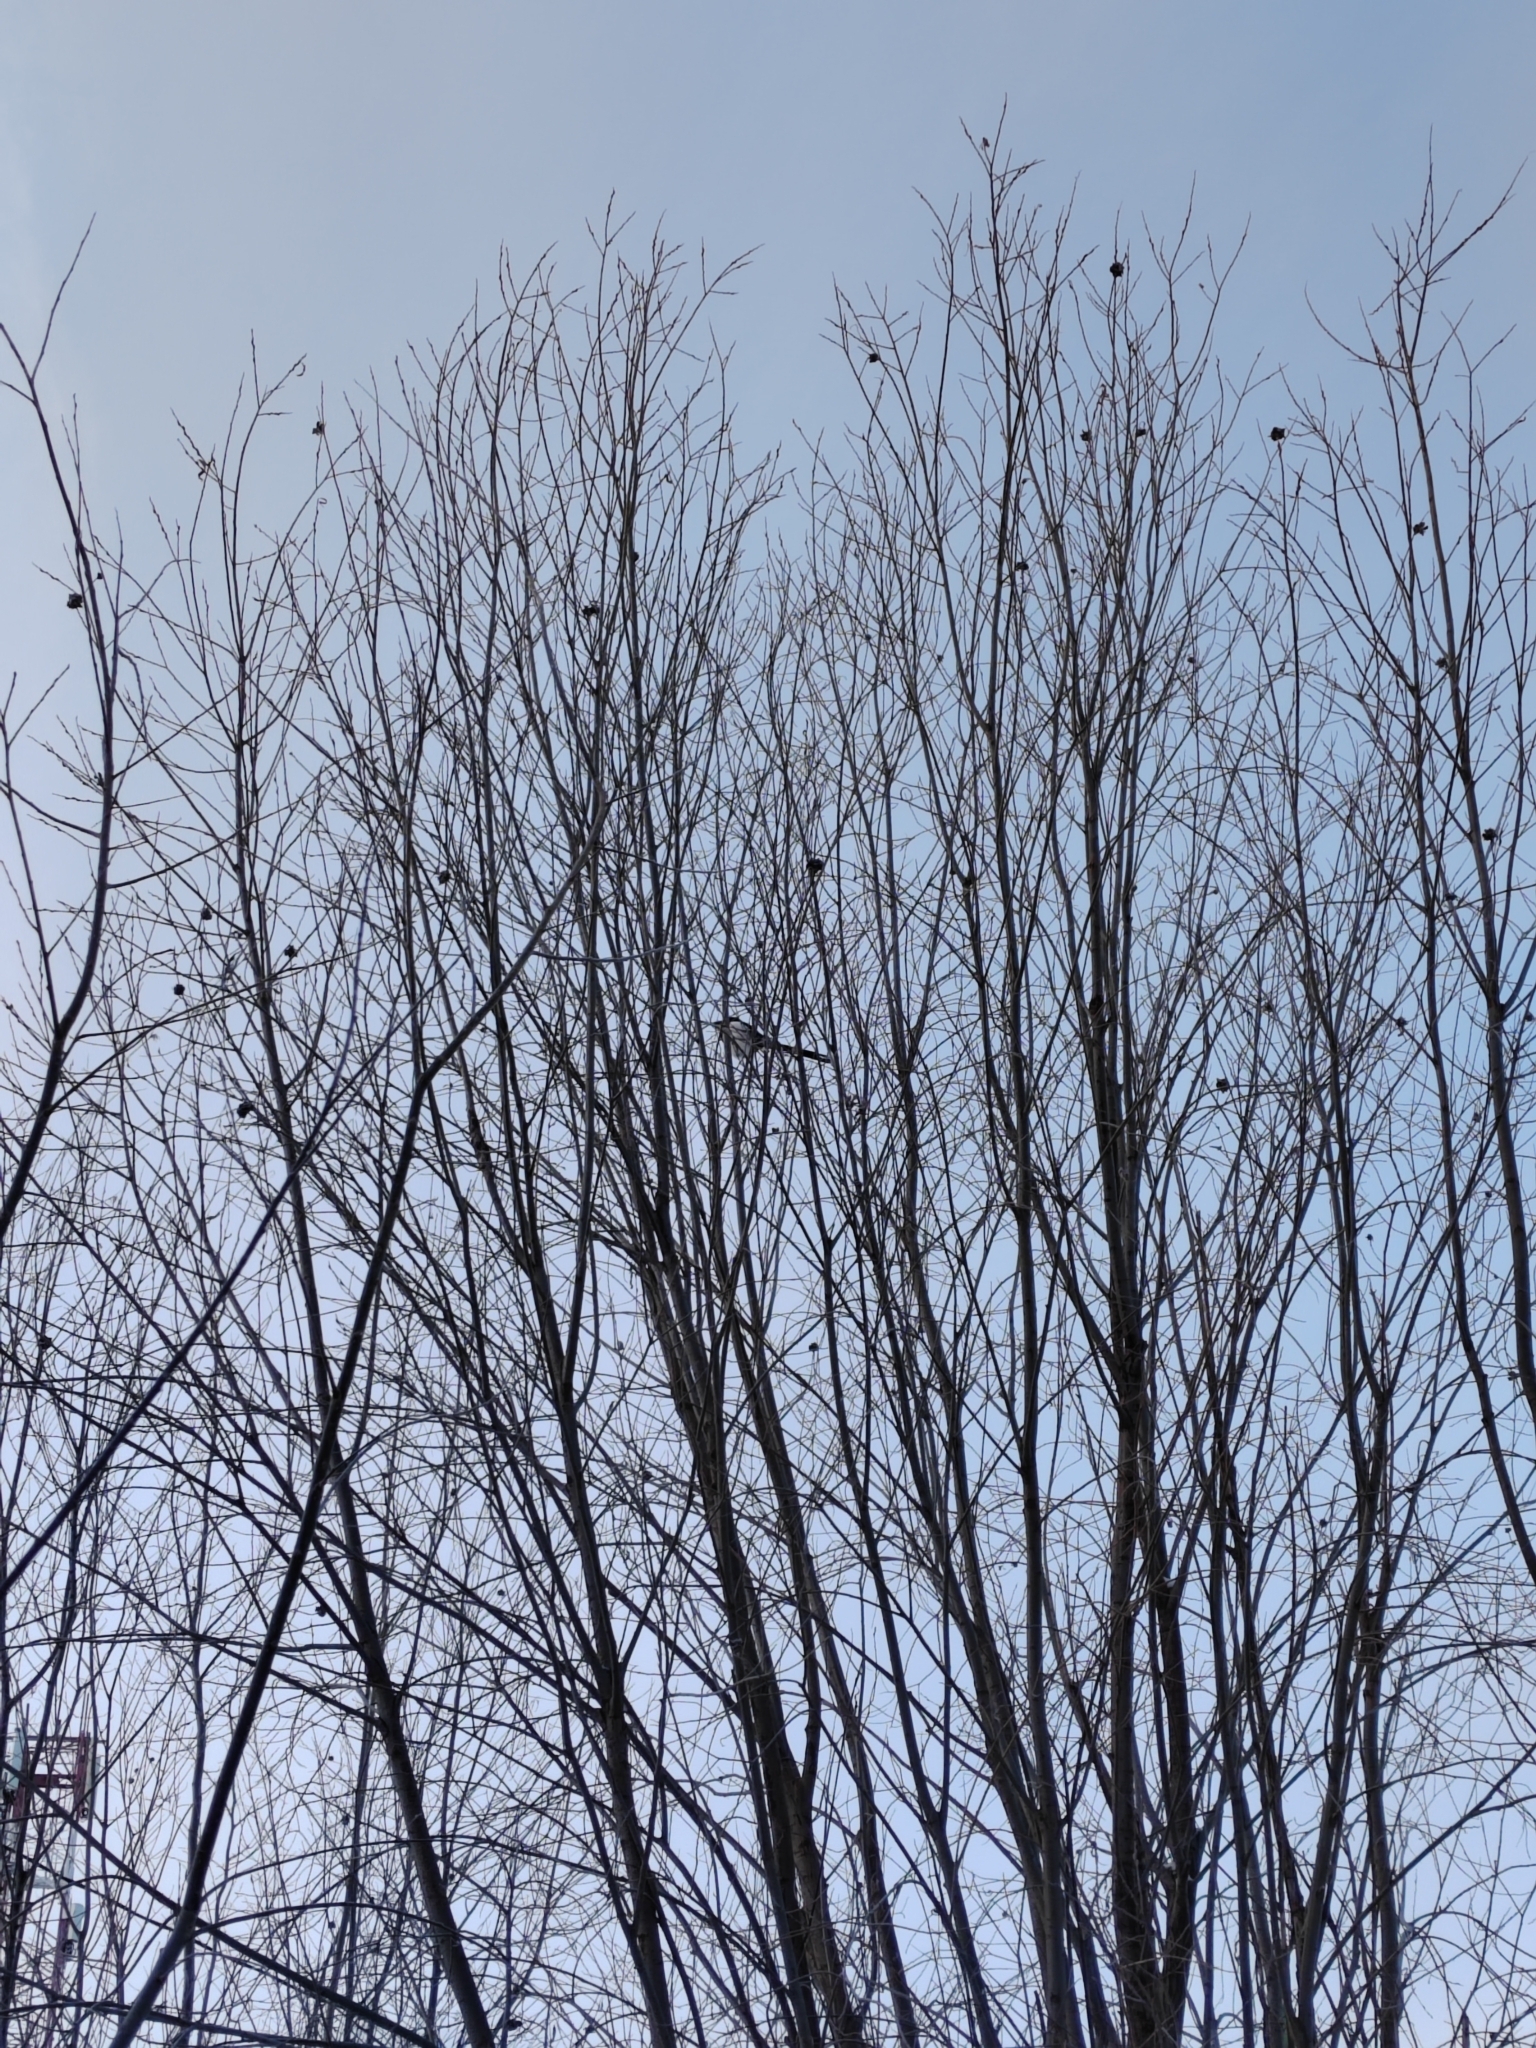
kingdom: Animalia
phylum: Chordata
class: Aves
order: Passeriformes
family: Corvidae
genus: Pica
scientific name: Pica pica
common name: Eurasian magpie
